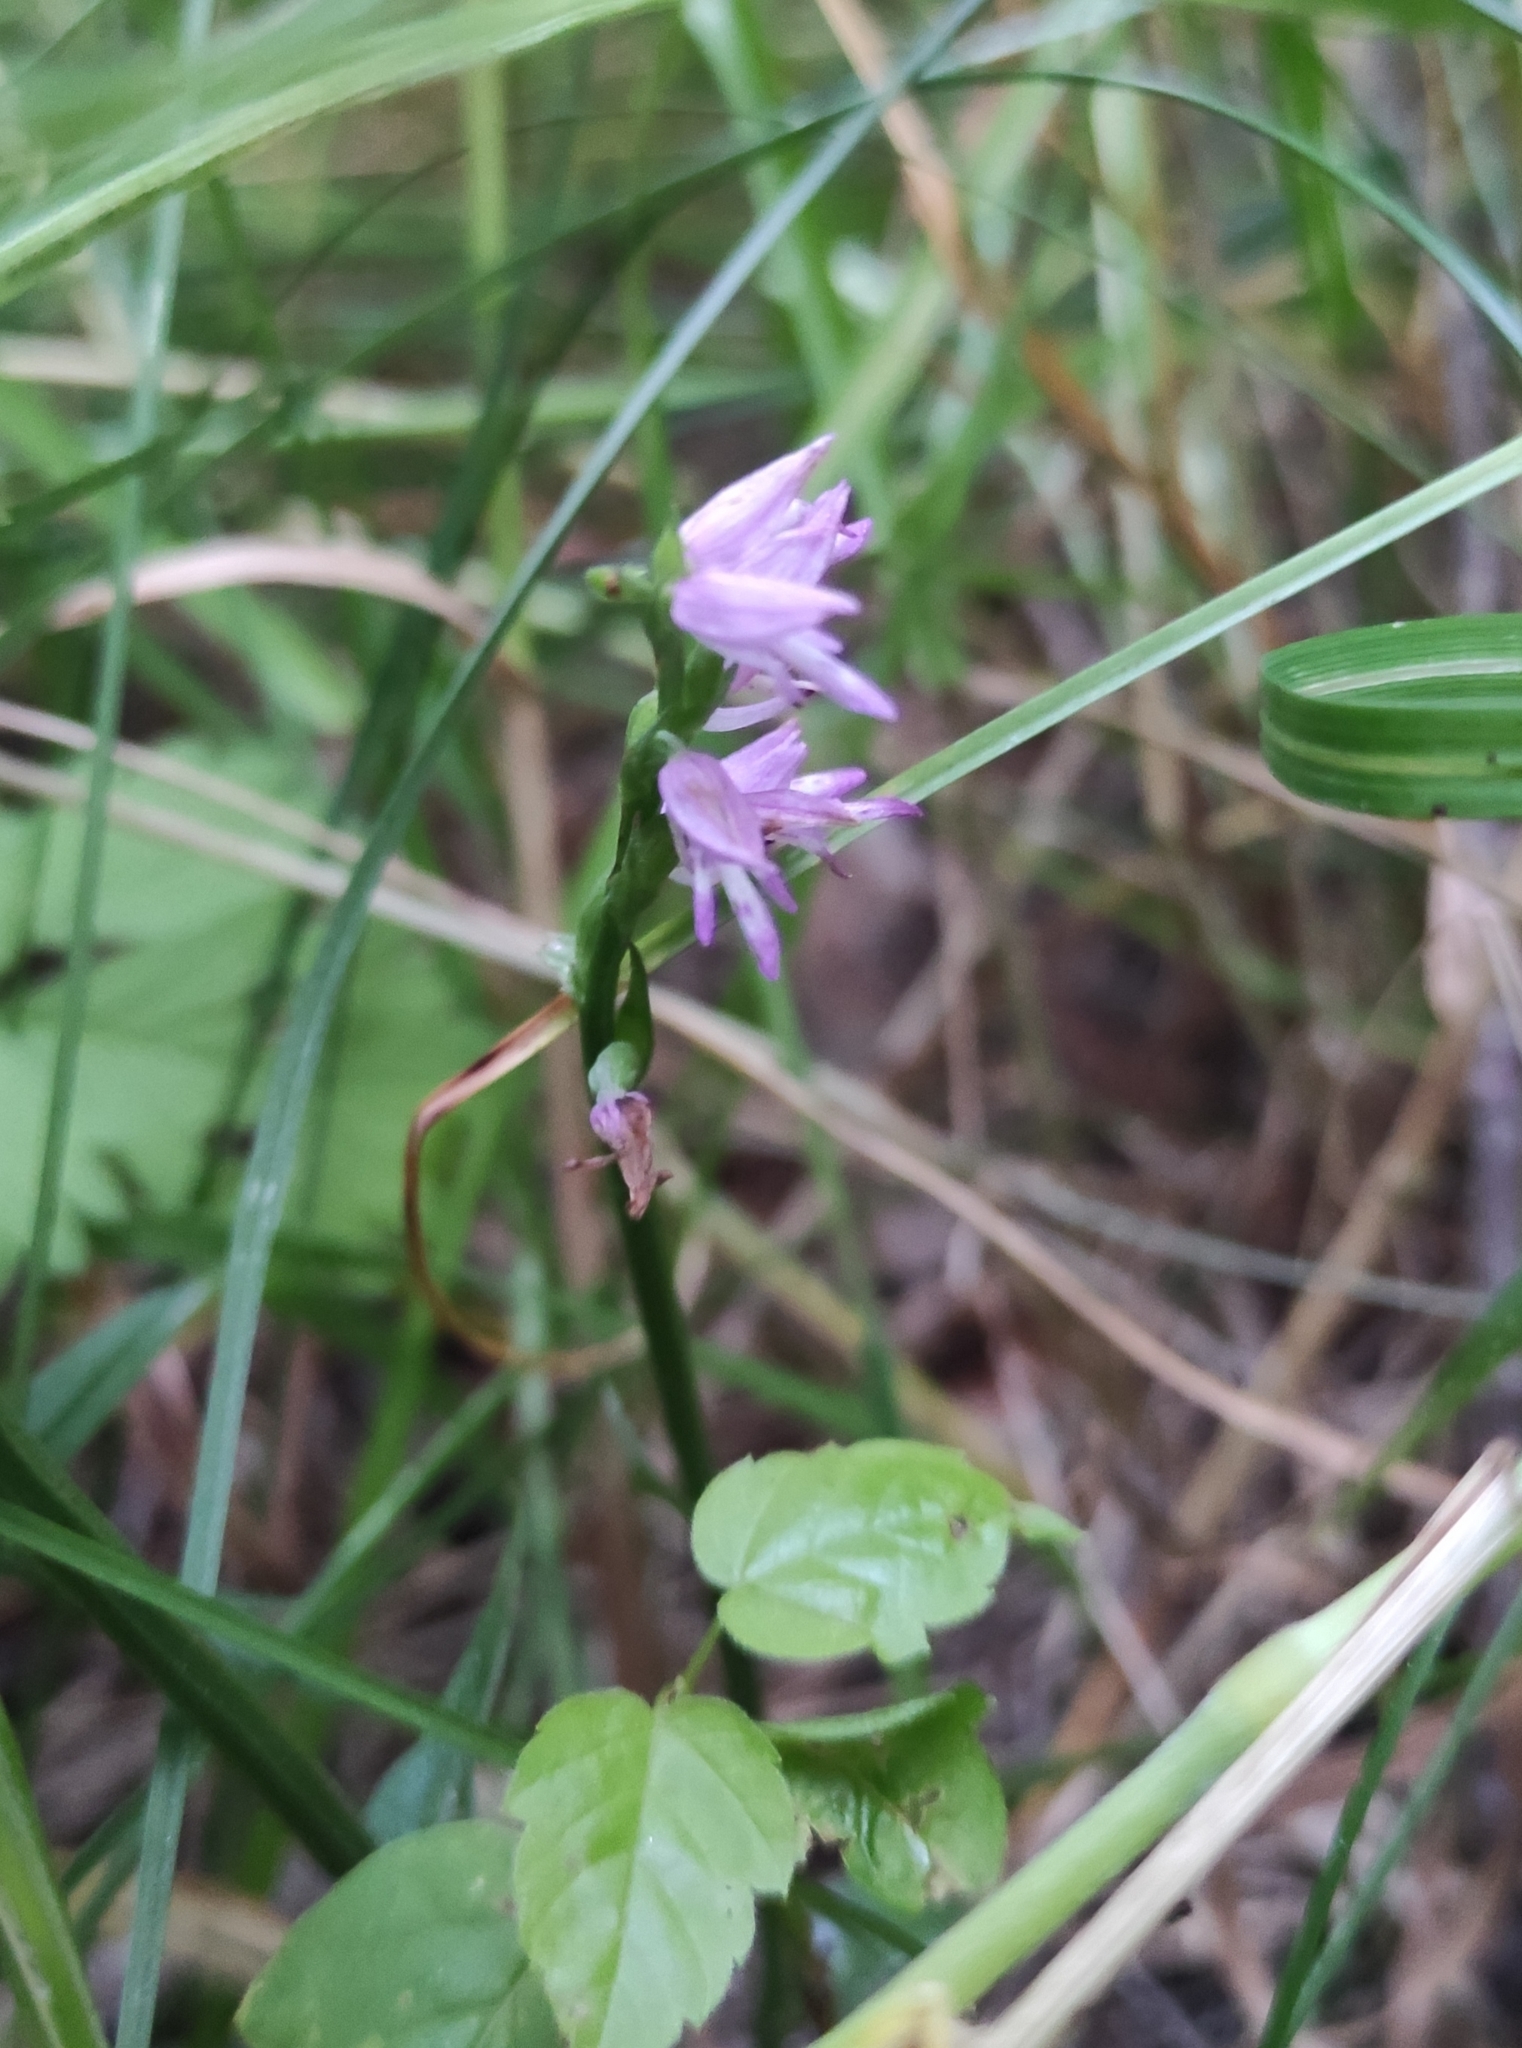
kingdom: Plantae
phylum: Tracheophyta
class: Liliopsida
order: Asparagales
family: Orchidaceae
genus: Hemipilia
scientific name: Hemipilia cucullata
